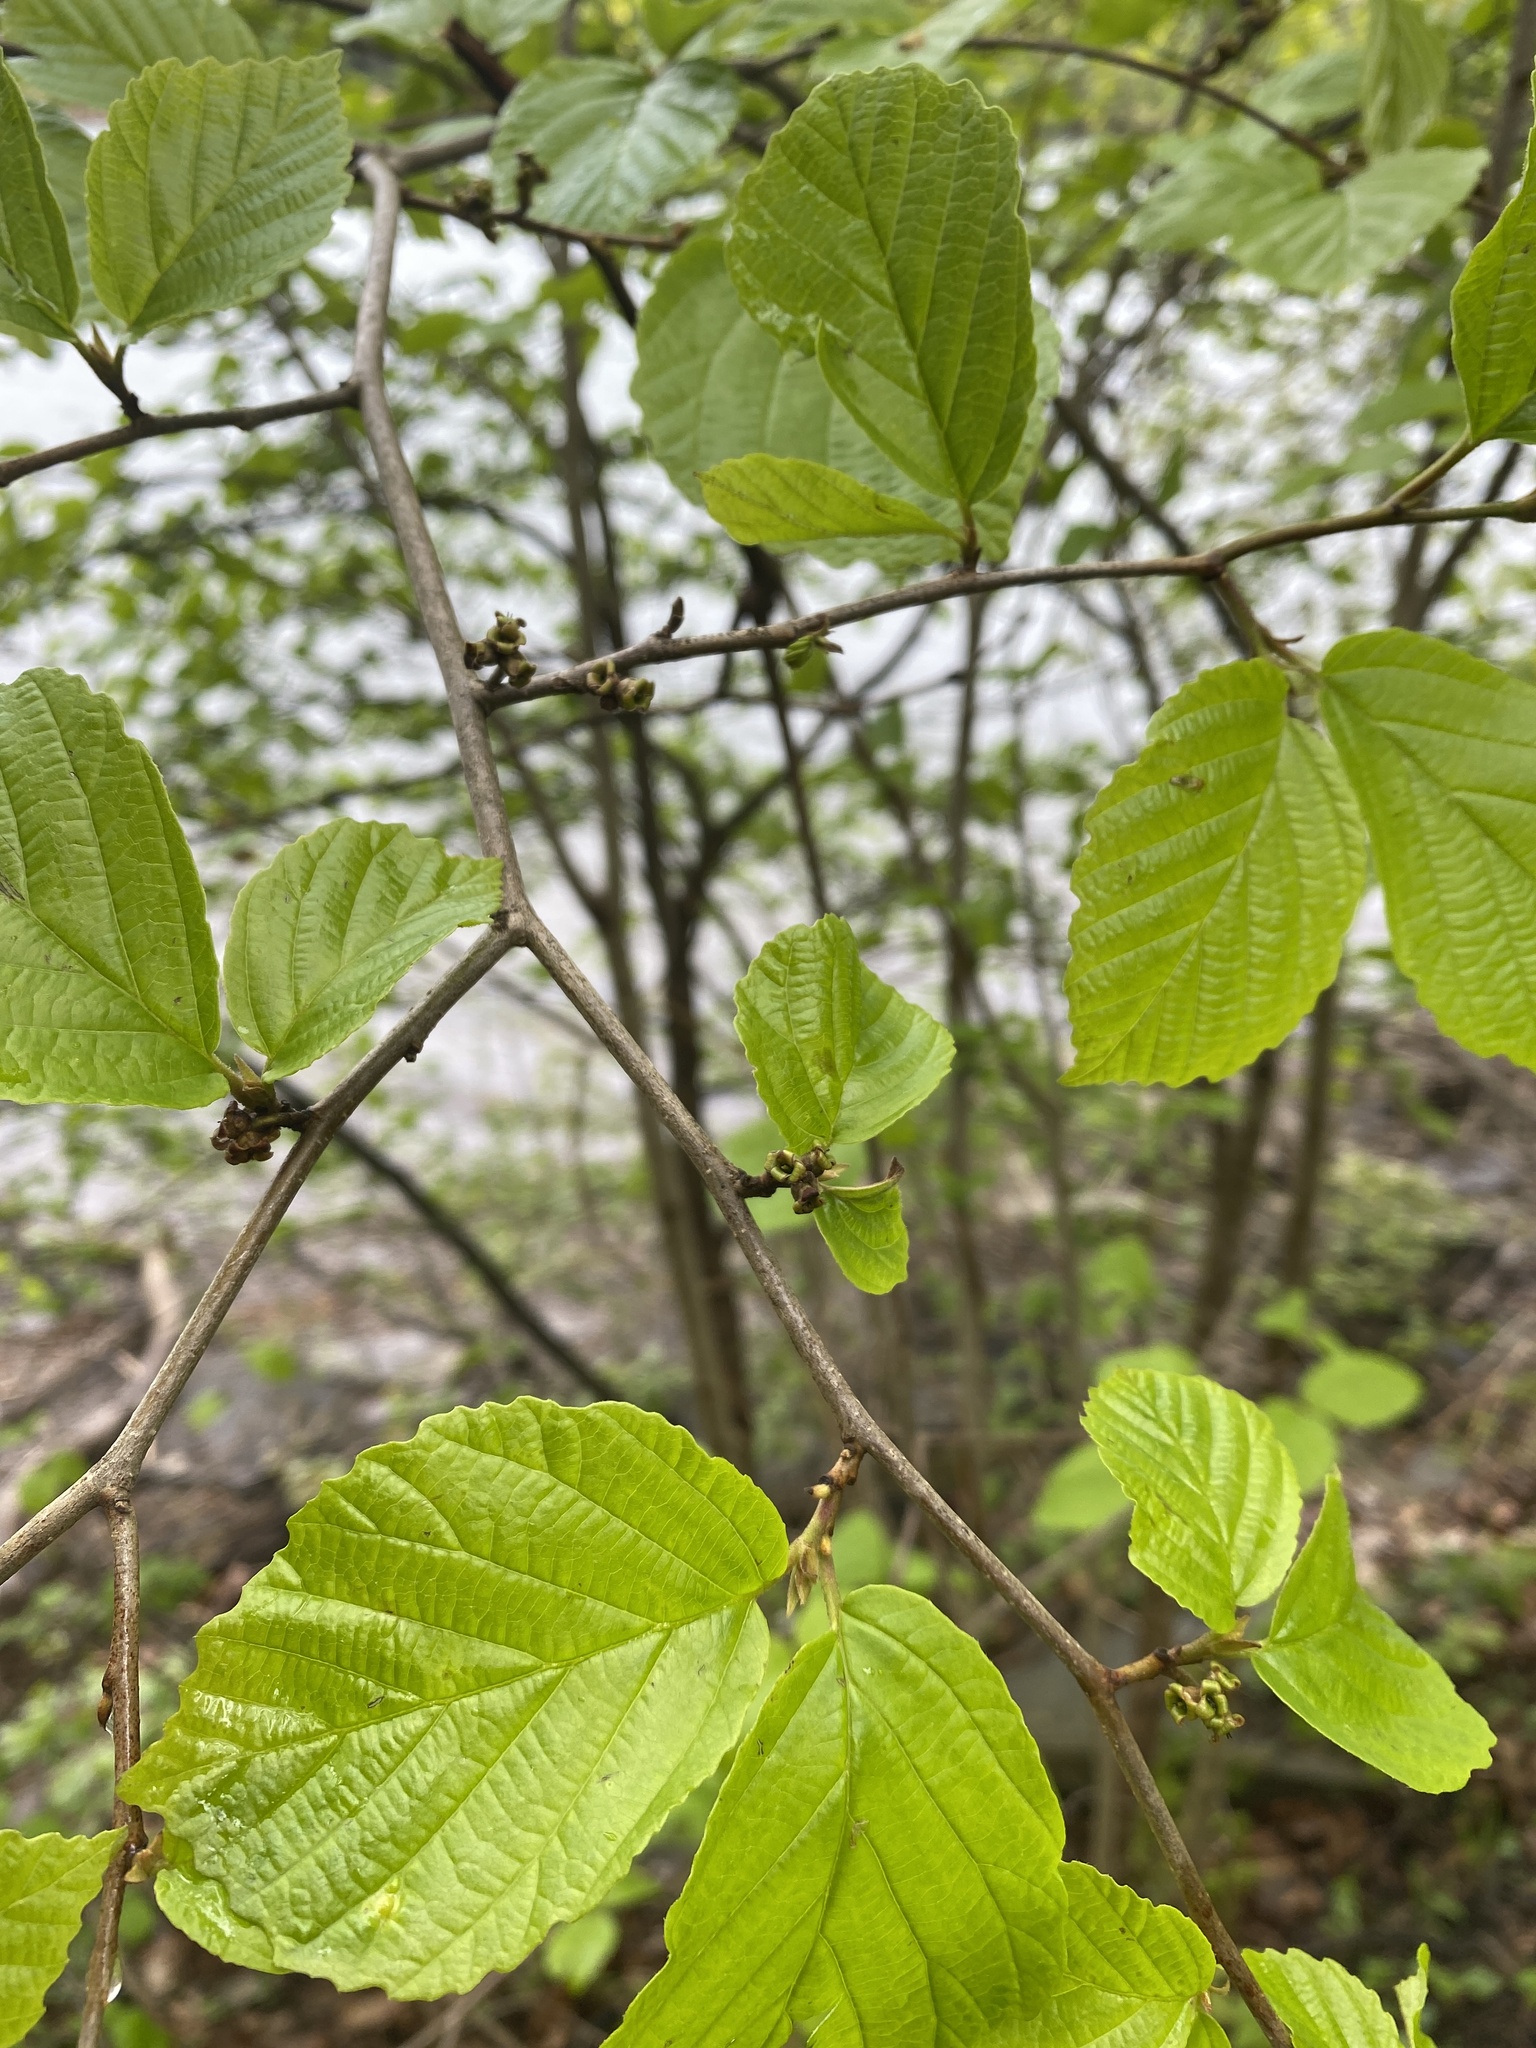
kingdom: Plantae
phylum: Tracheophyta
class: Magnoliopsida
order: Saxifragales
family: Hamamelidaceae
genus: Hamamelis
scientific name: Hamamelis virginiana
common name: Witch-hazel
